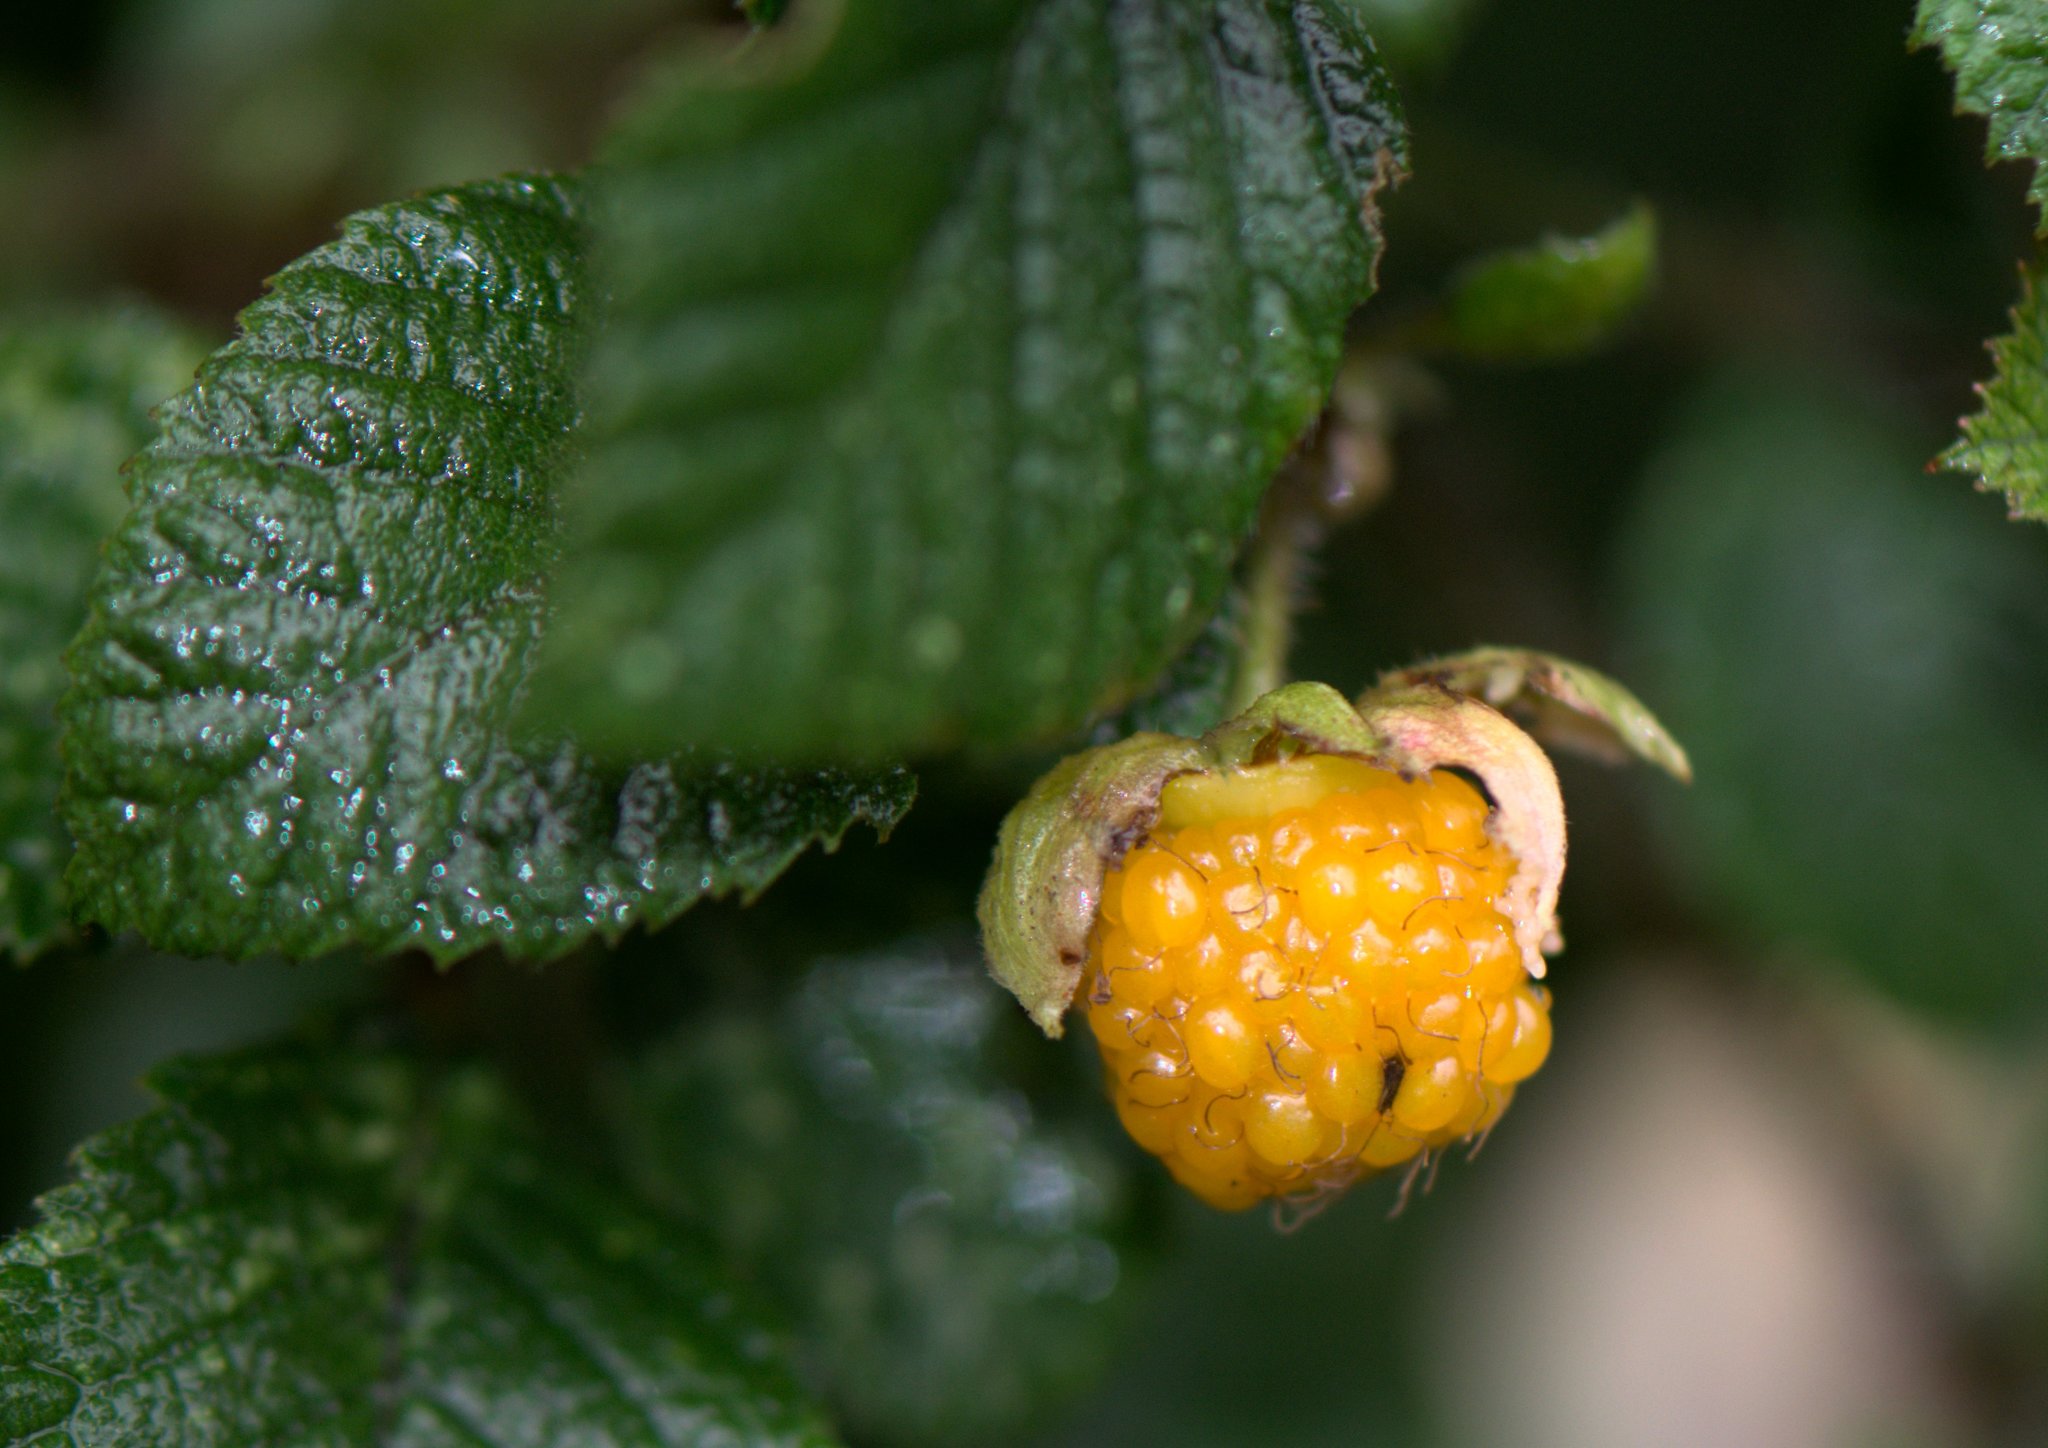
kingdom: Plantae
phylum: Tracheophyta
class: Magnoliopsida
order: Rosales
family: Rosaceae
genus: Rubus
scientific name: Rubus ellipticus
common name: Cheeseberry
